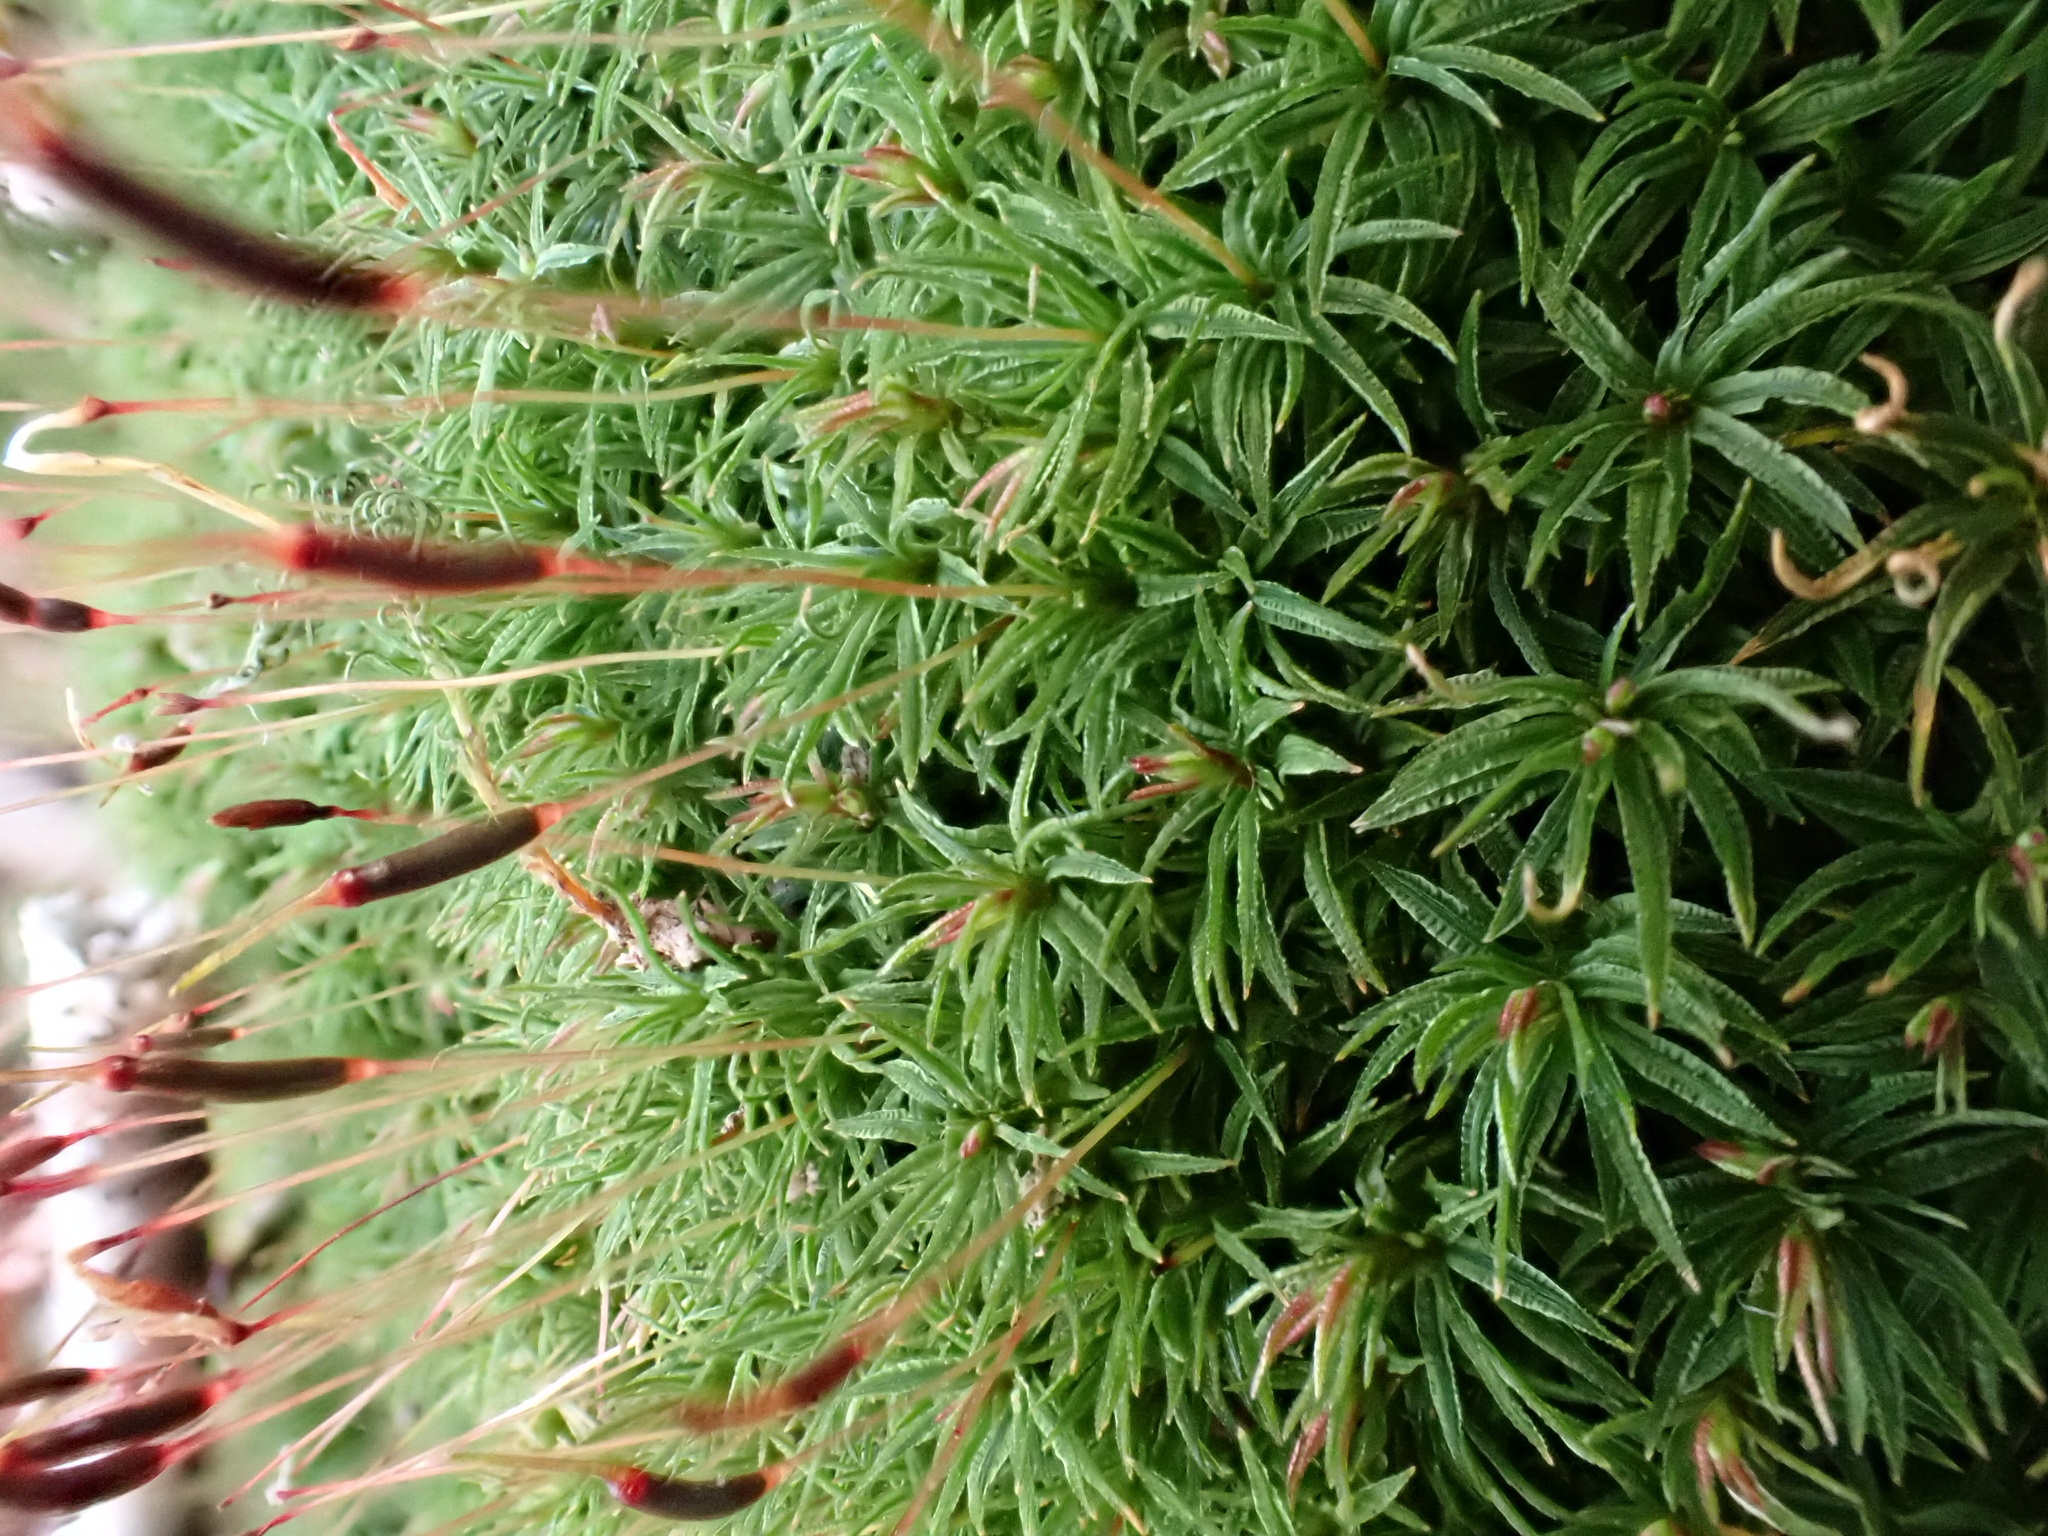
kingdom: Plantae
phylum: Bryophyta
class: Polytrichopsida
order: Polytrichales
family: Polytrichaceae
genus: Atrichum
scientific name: Atrichum angustatum
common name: Lesser smoothcap
